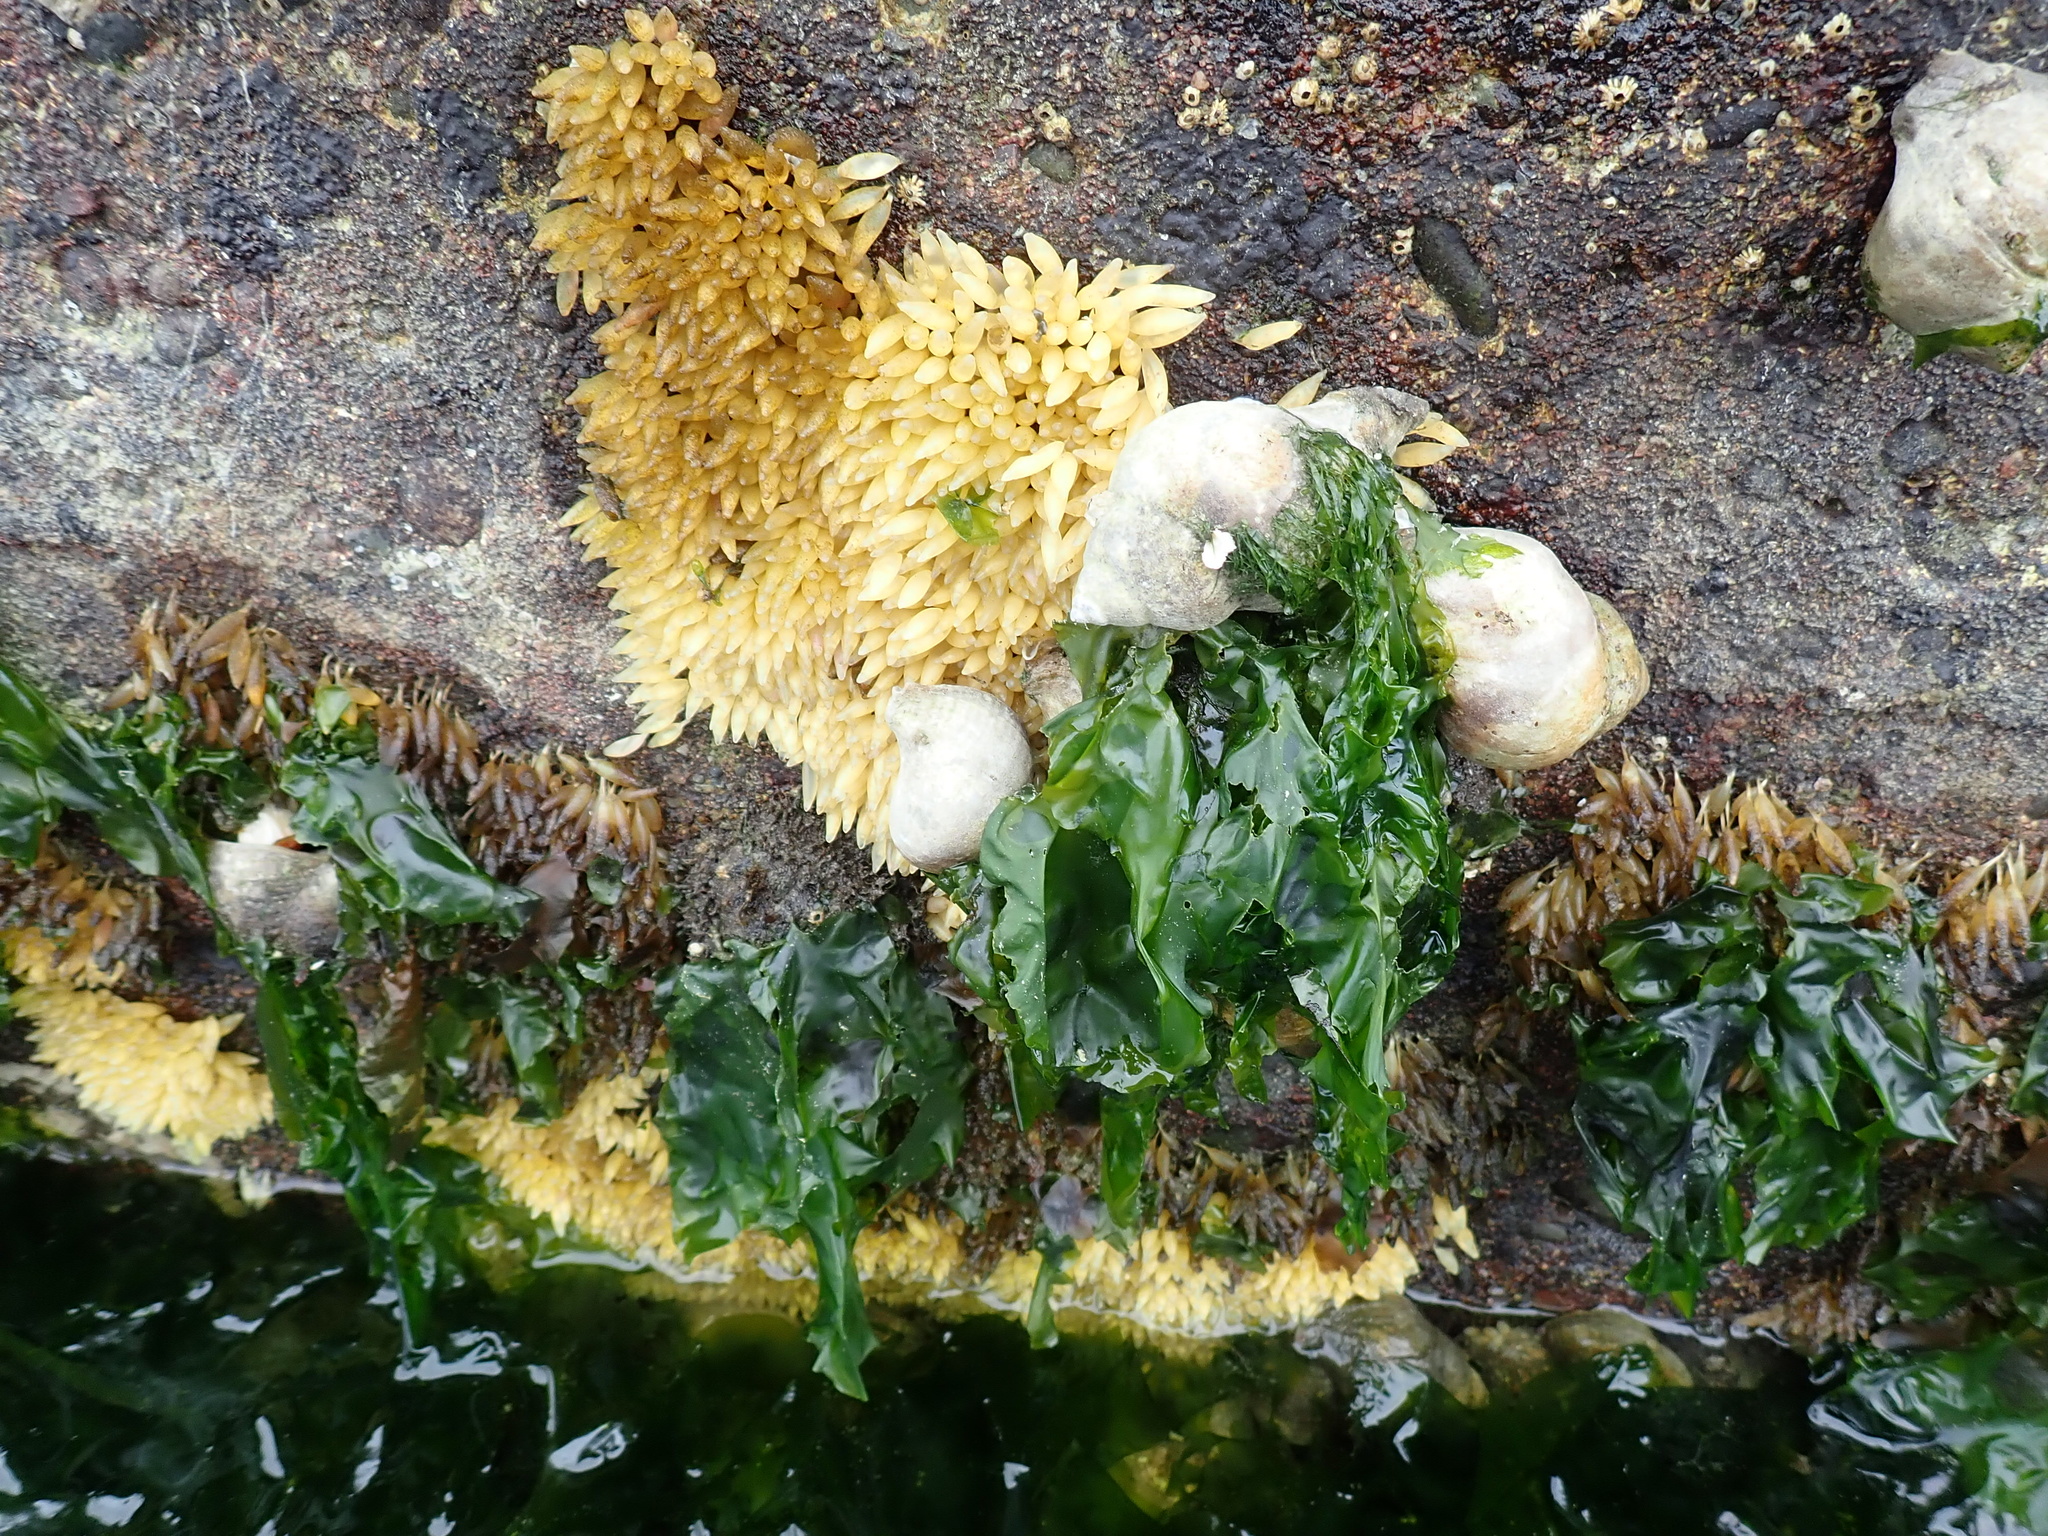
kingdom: Animalia
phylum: Mollusca
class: Gastropoda
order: Neogastropoda
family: Muricidae
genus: Nucella
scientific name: Nucella lamellosa
